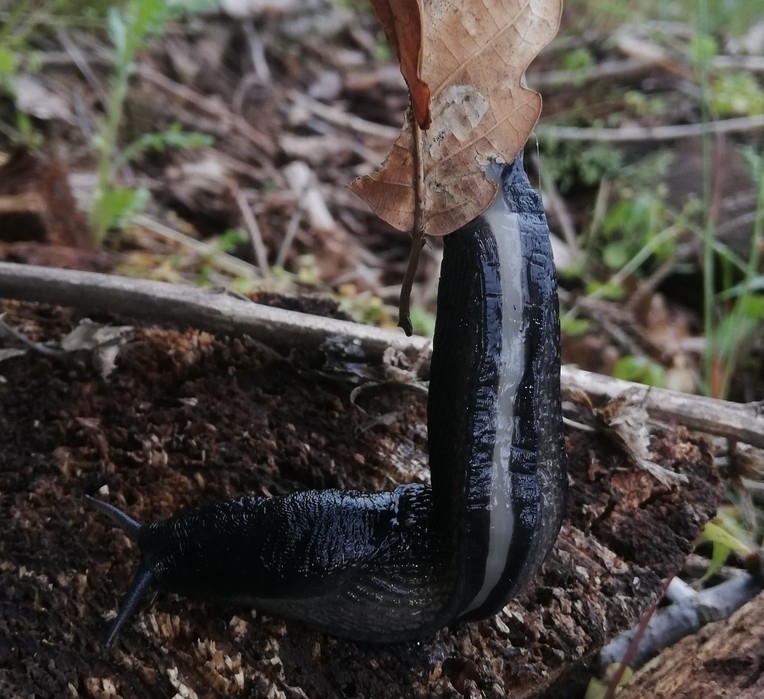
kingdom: Animalia
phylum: Mollusca
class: Gastropoda
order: Stylommatophora
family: Limacidae
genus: Limax
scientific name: Limax cinereoniger
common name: Ash-black slug
